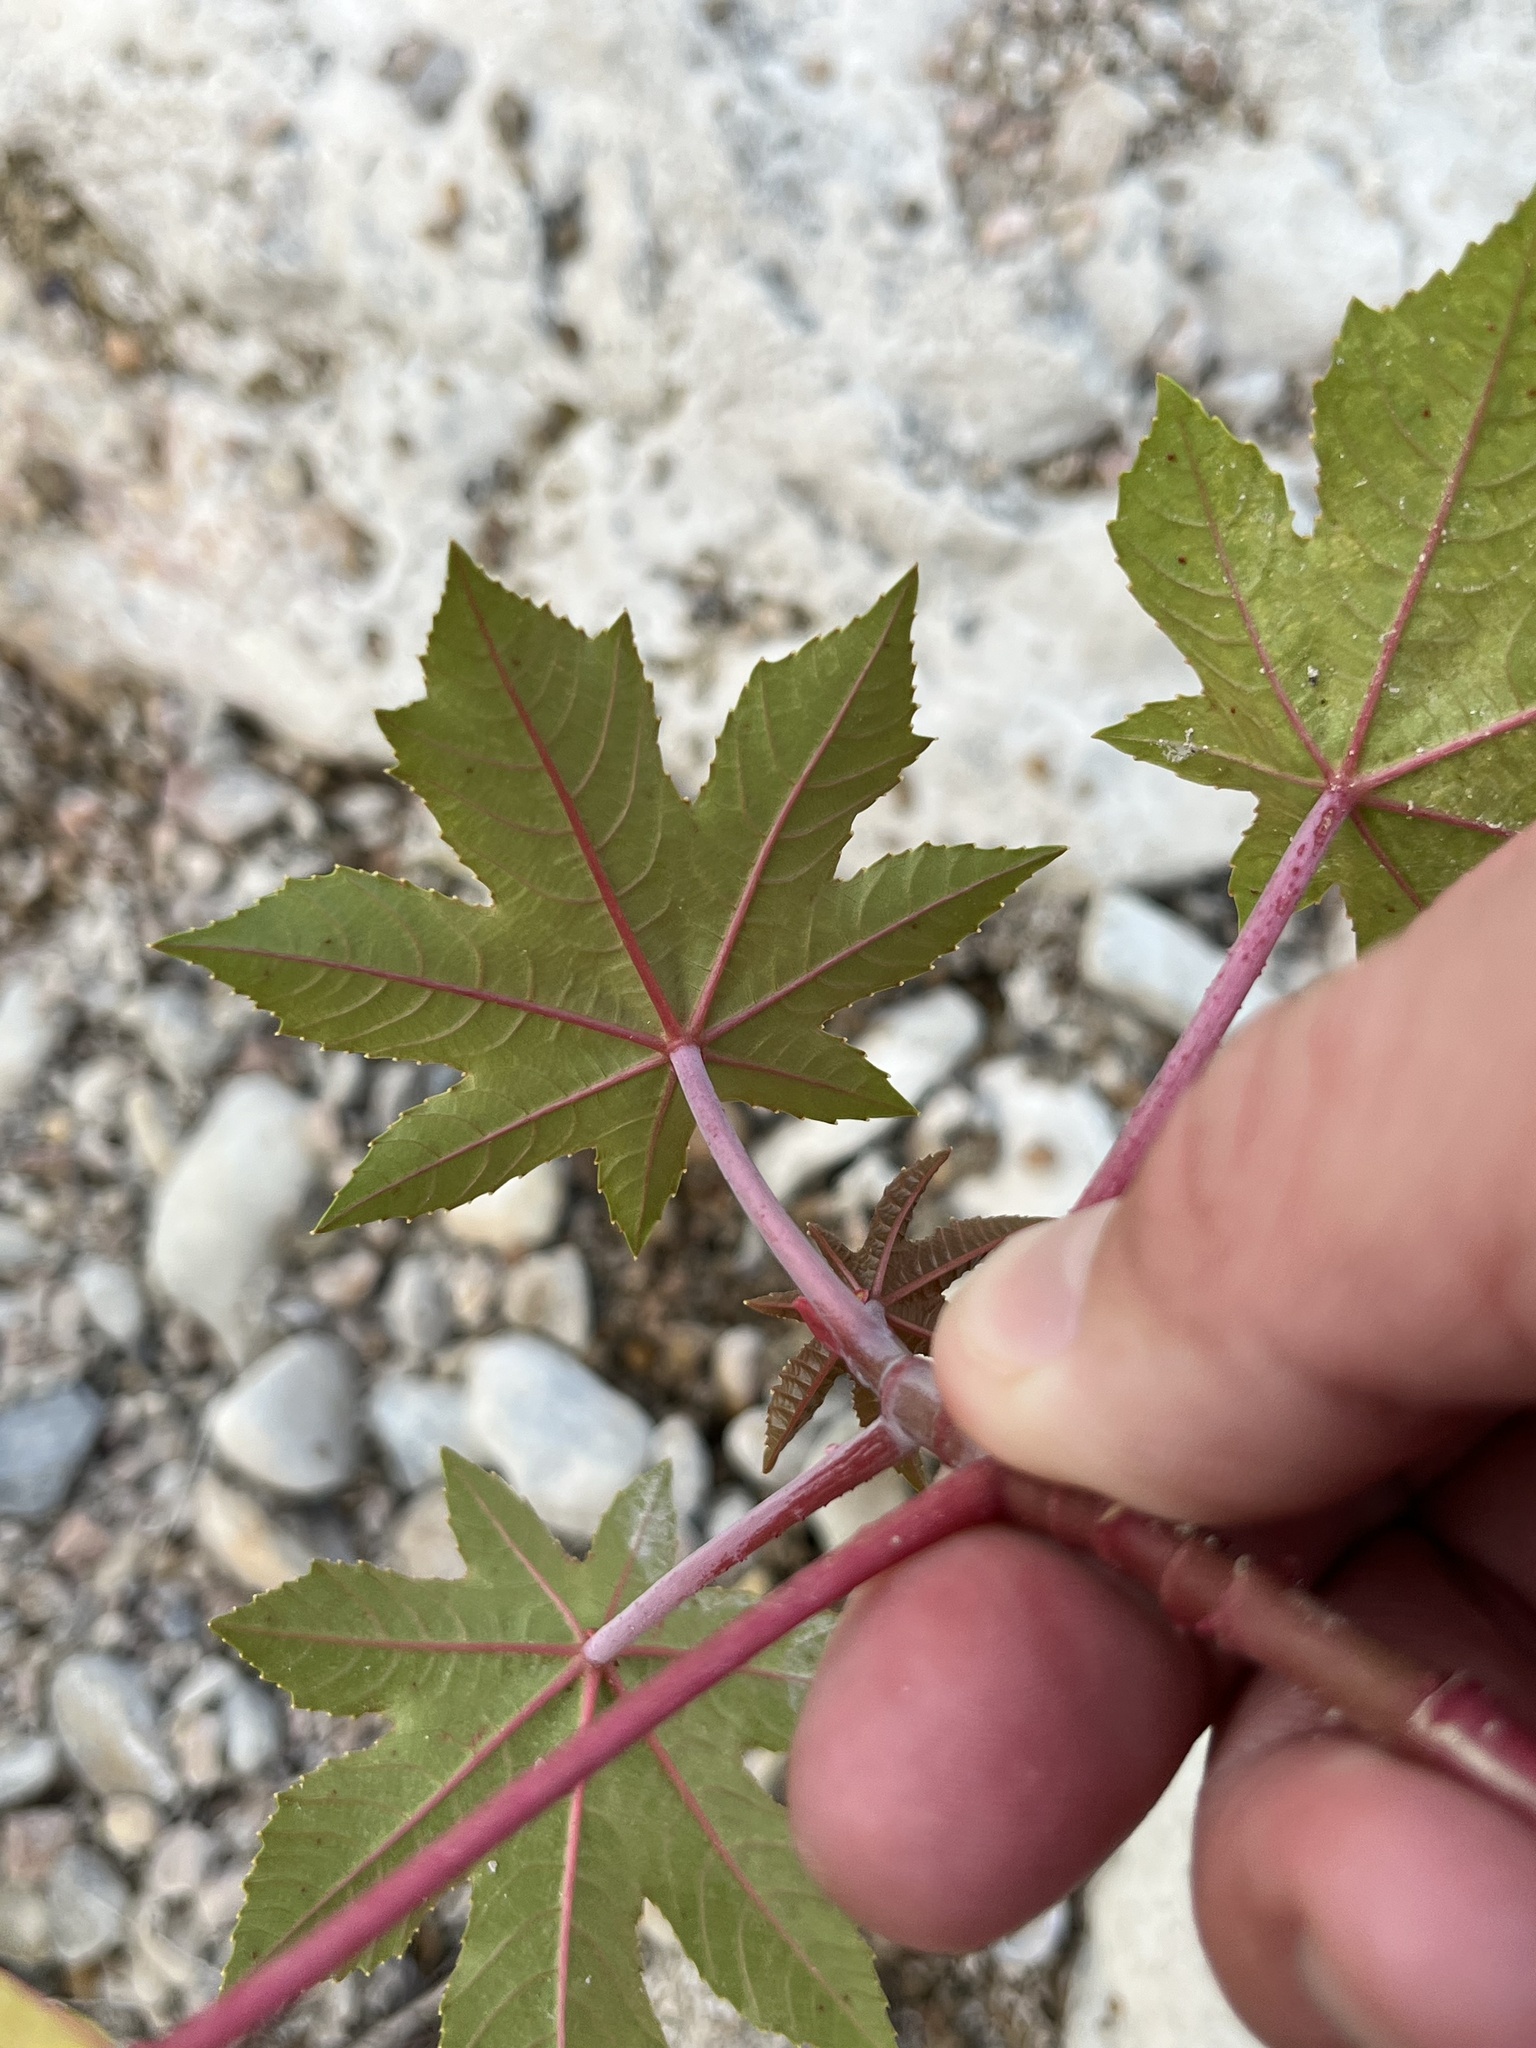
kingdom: Plantae
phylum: Tracheophyta
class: Magnoliopsida
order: Malpighiales
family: Euphorbiaceae
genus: Ricinus
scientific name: Ricinus communis
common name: Castor-oil-plant
